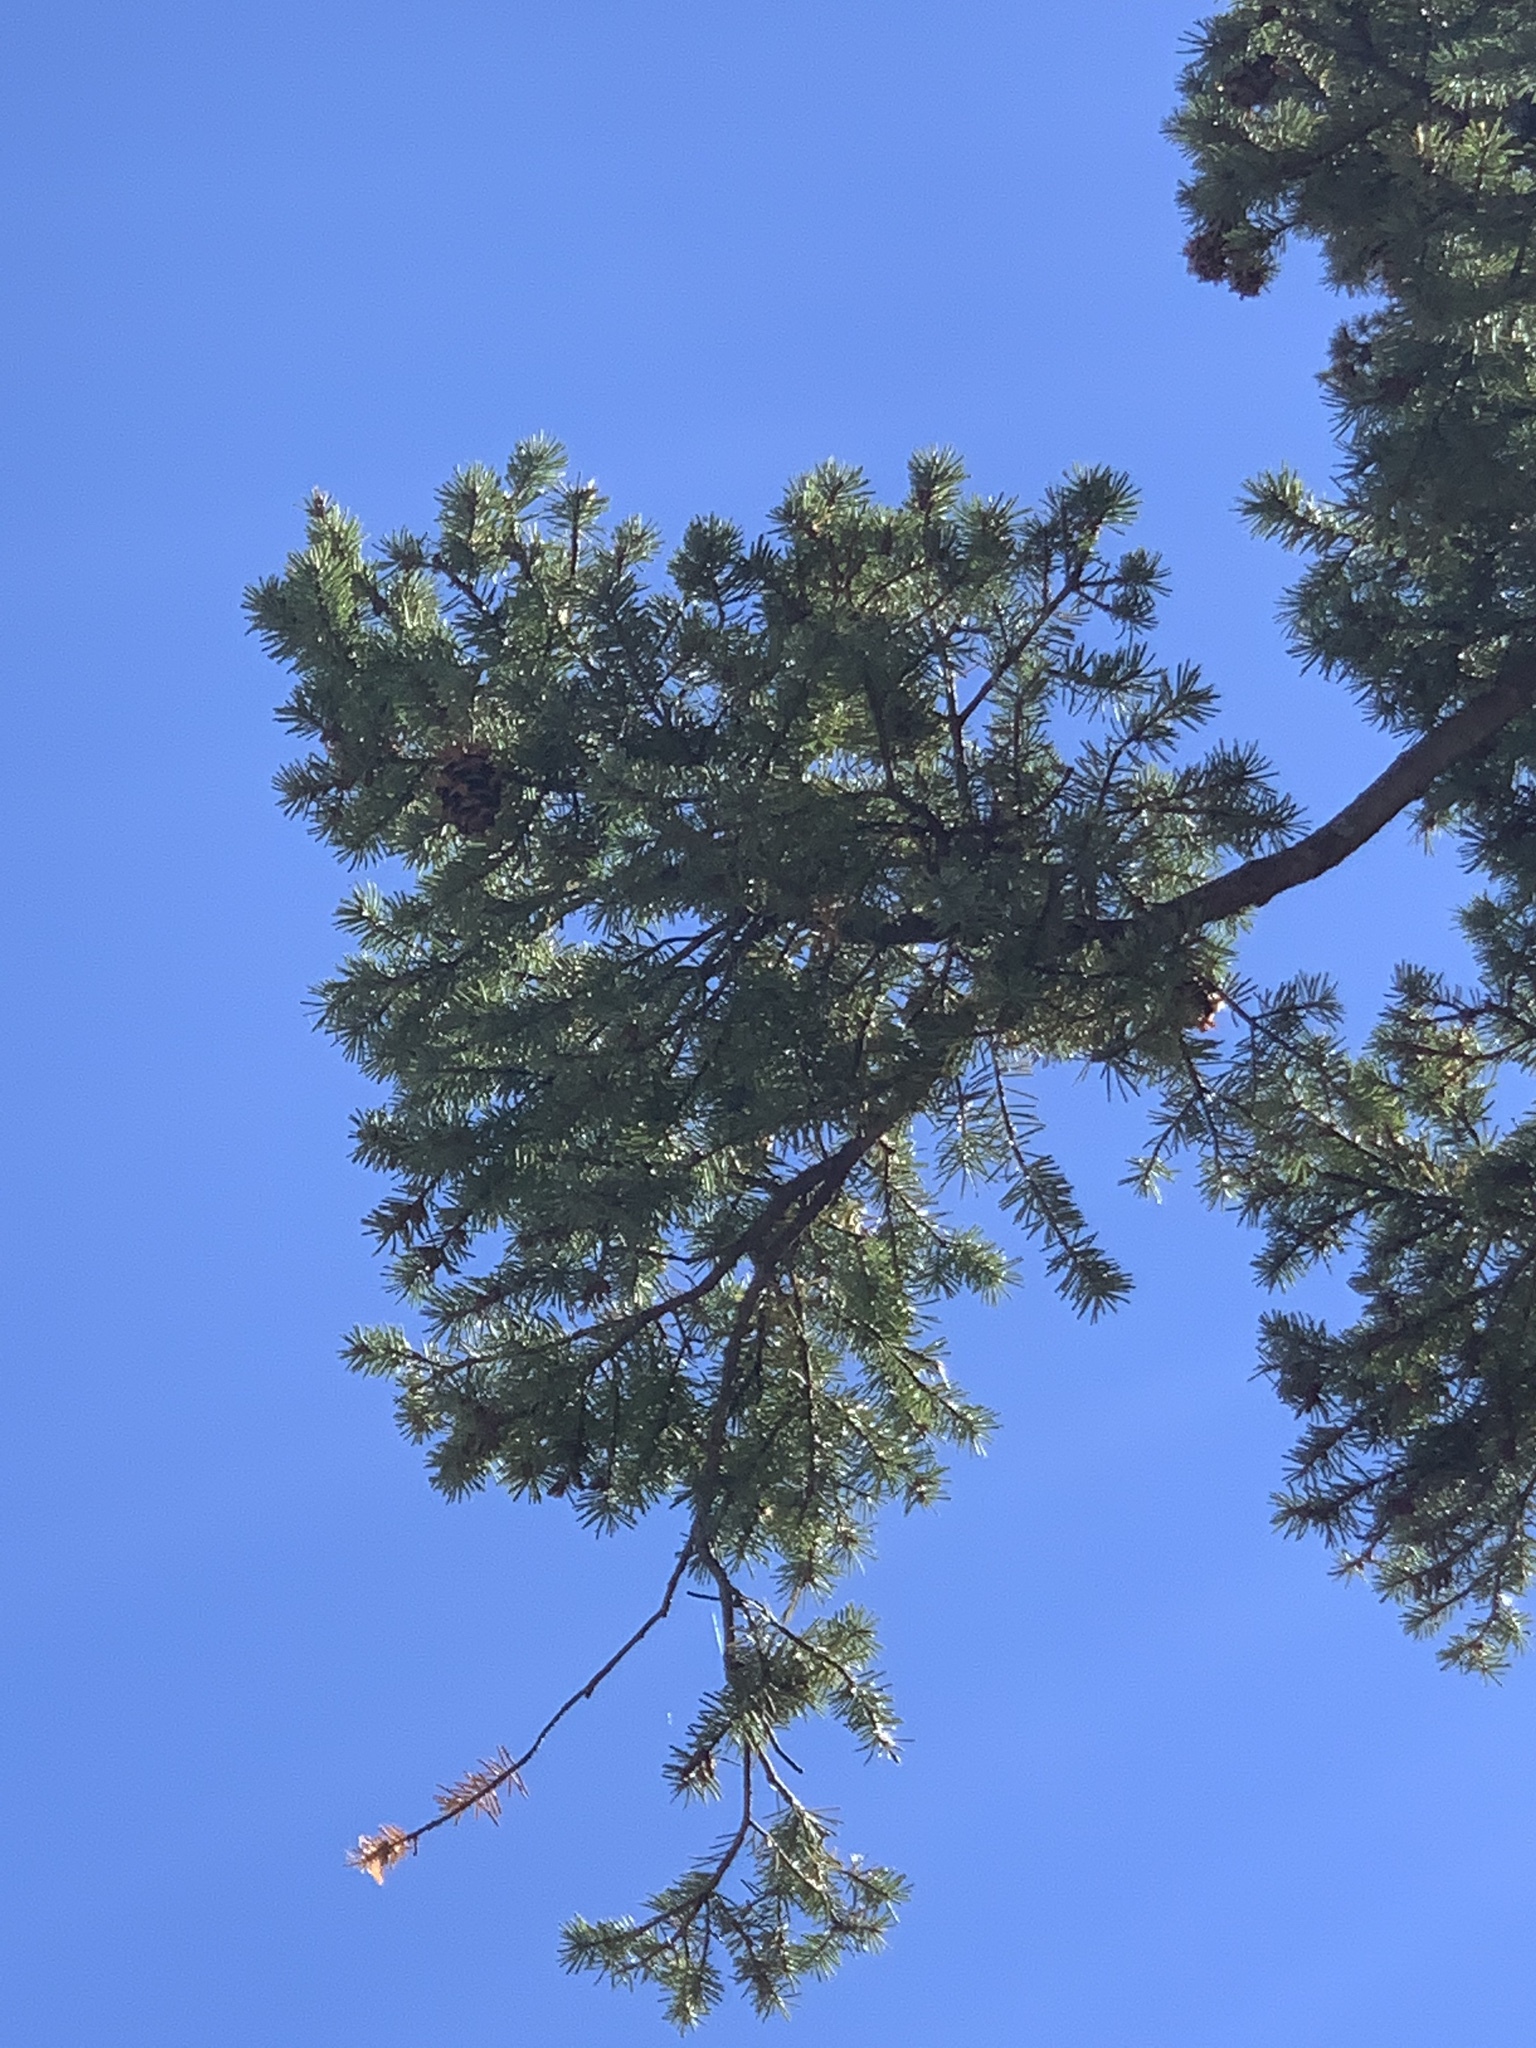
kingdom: Plantae
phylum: Tracheophyta
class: Pinopsida
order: Pinales
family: Pinaceae
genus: Pseudotsuga
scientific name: Pseudotsuga menziesii
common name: Douglas fir
